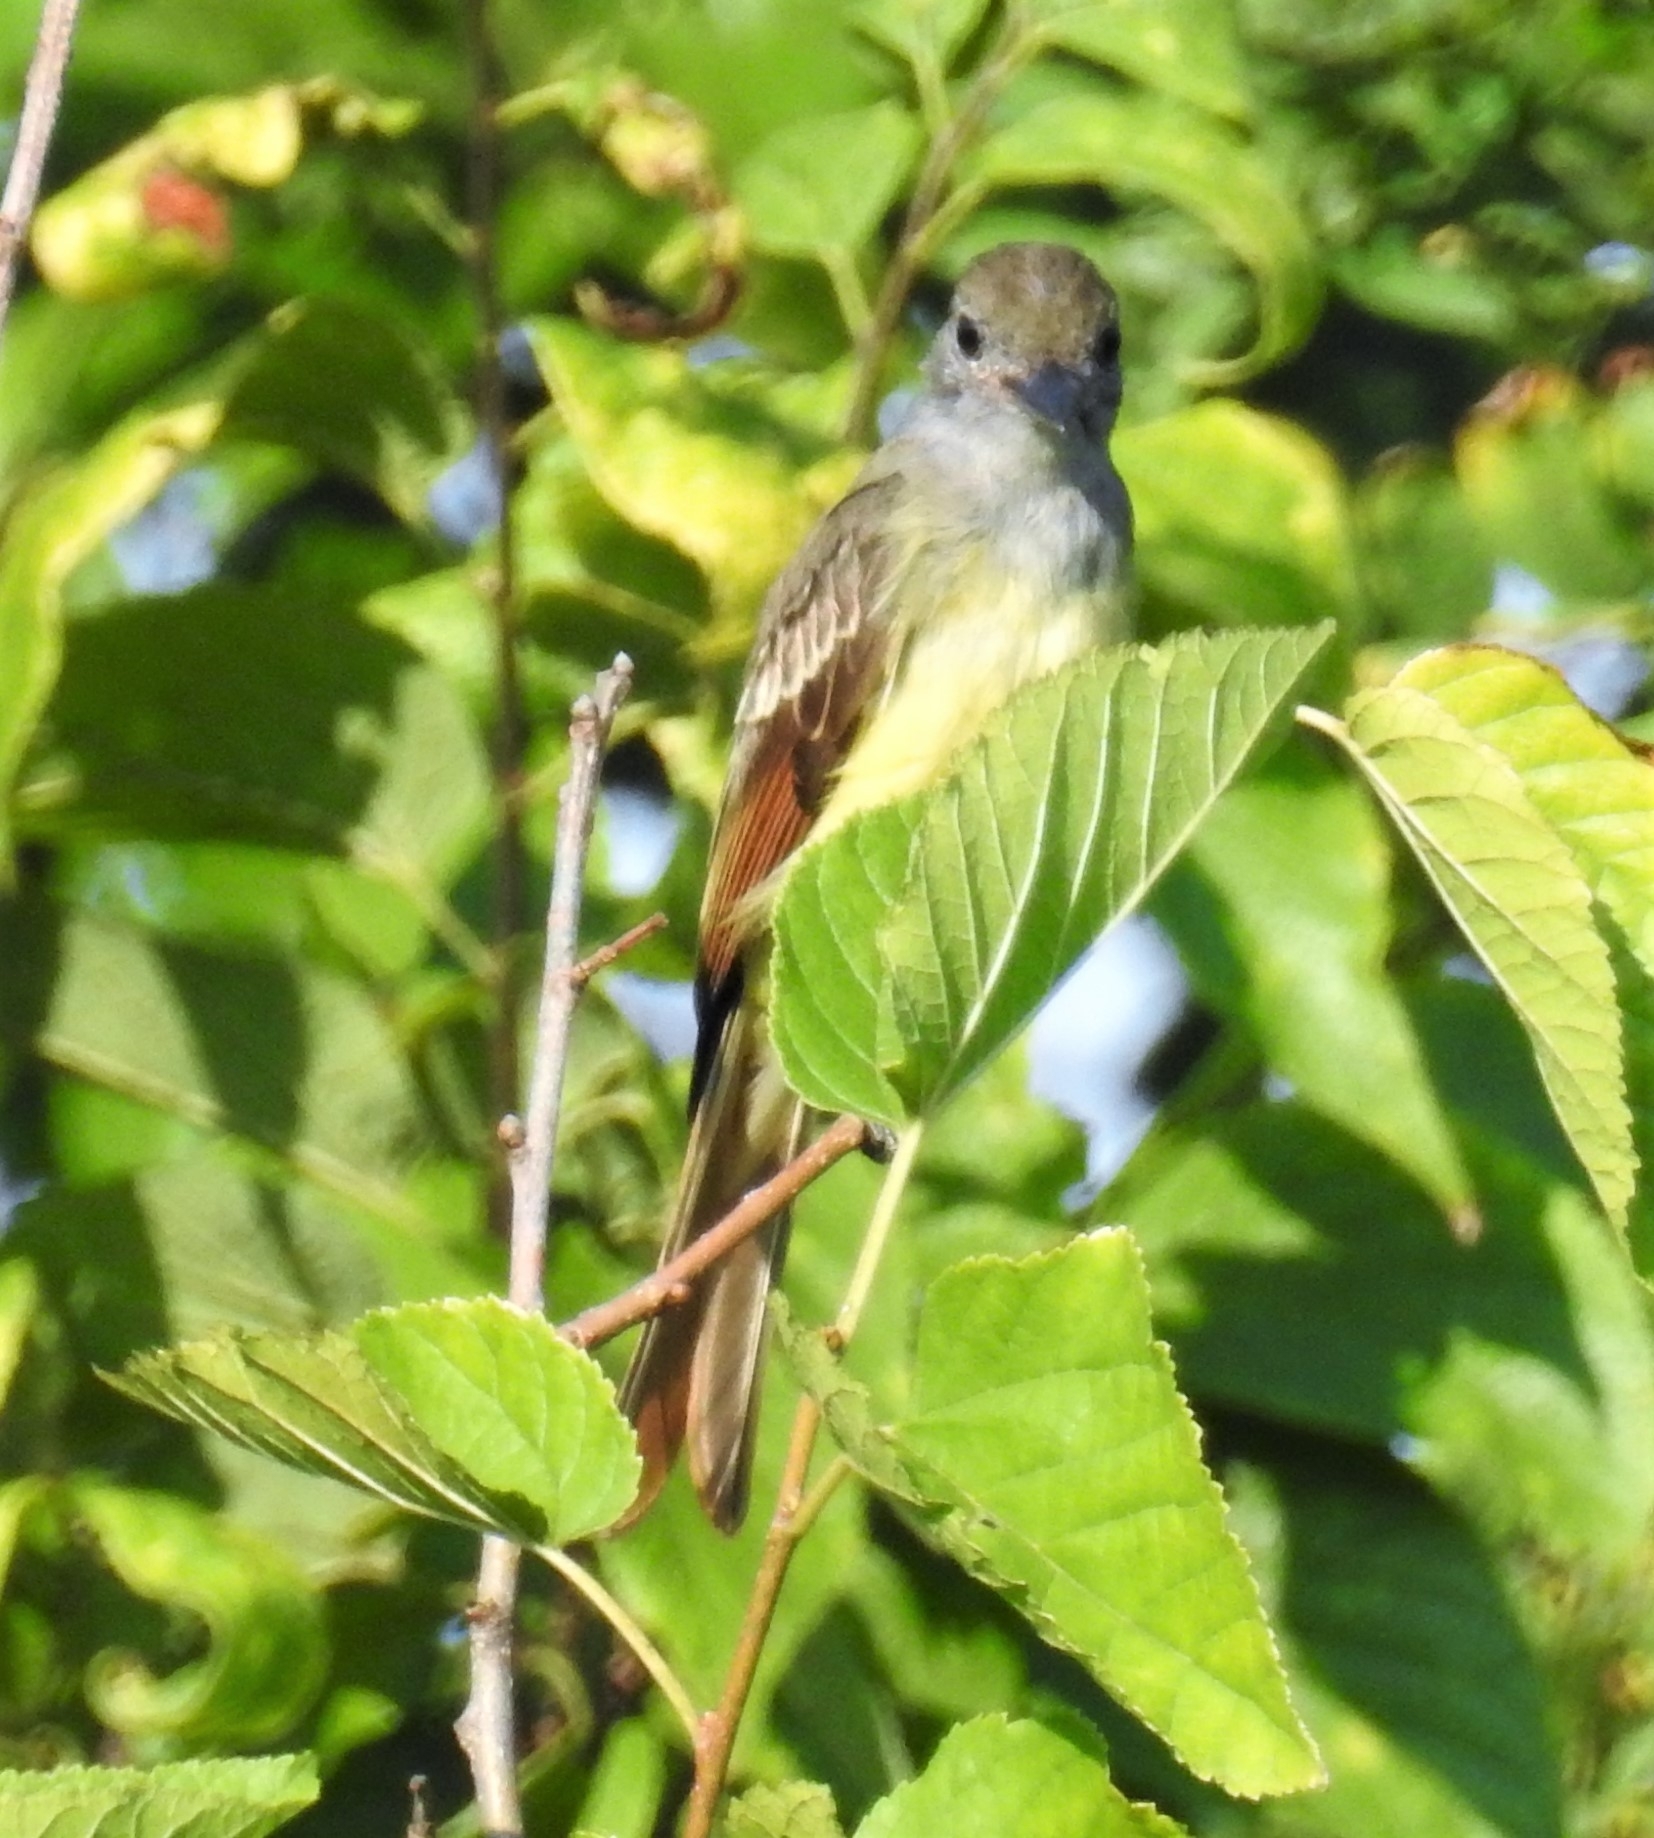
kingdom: Animalia
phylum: Chordata
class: Aves
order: Passeriformes
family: Tyrannidae
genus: Myiarchus
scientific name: Myiarchus crinitus
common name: Great crested flycatcher
